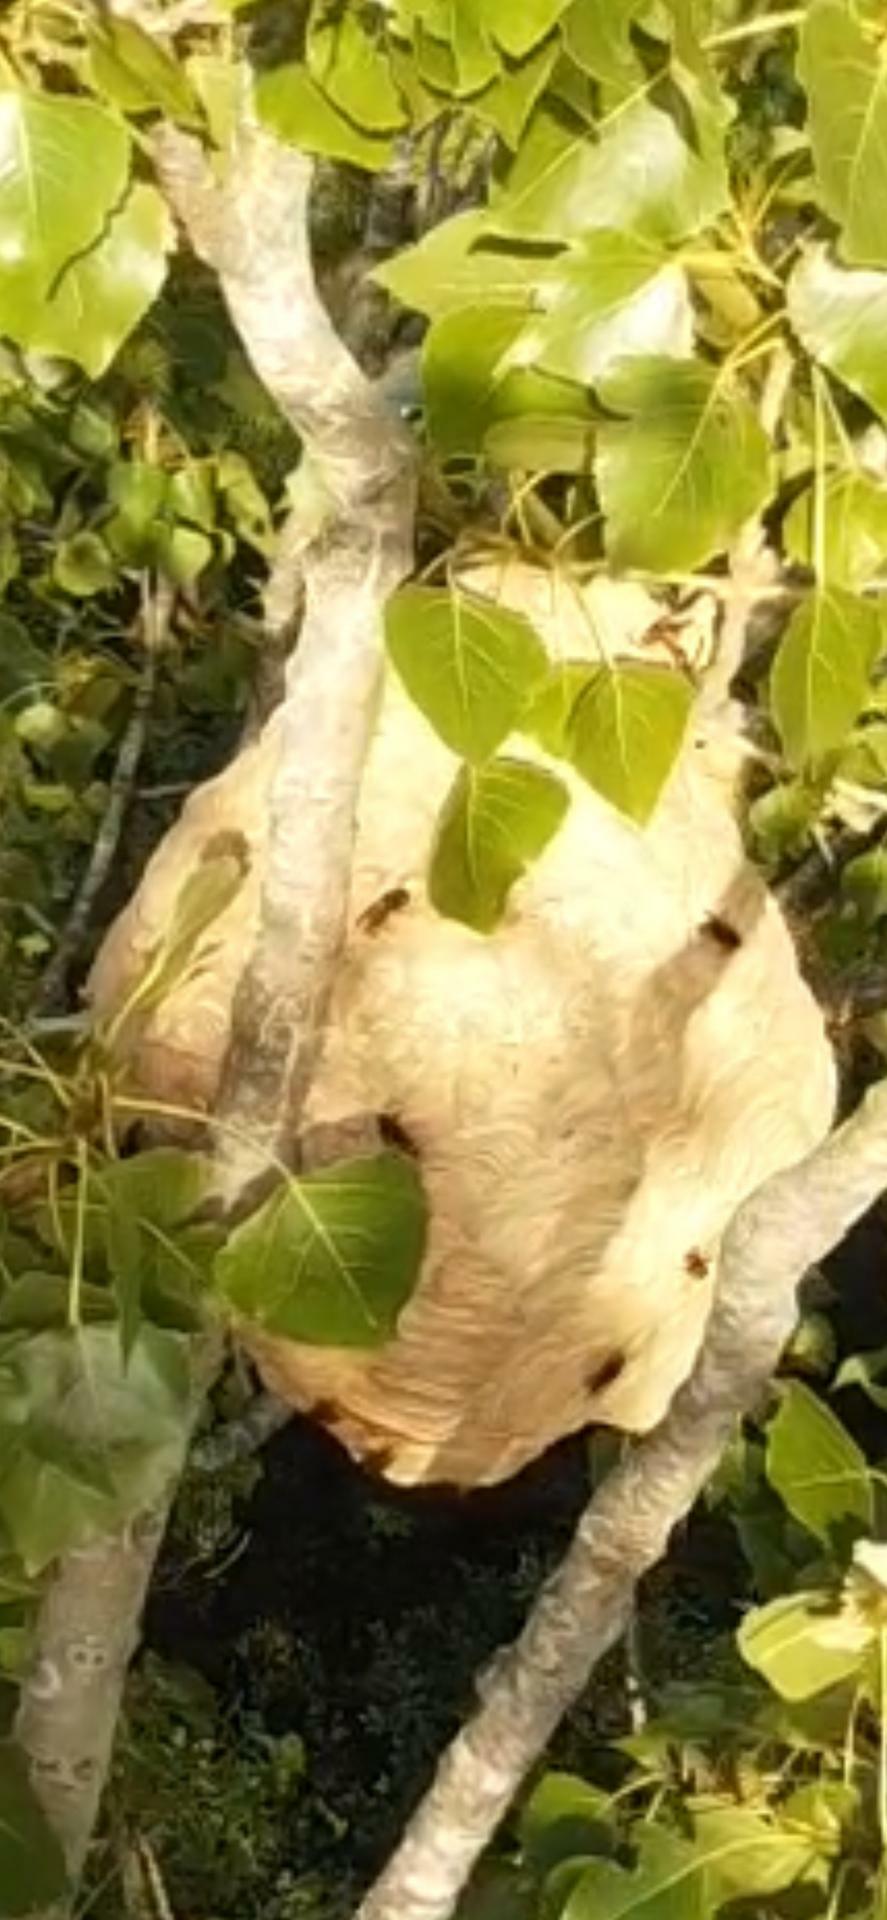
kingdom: Animalia
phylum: Arthropoda
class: Insecta
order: Hymenoptera
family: Vespidae
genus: Vespa
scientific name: Vespa velutina
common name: Asian hornet
